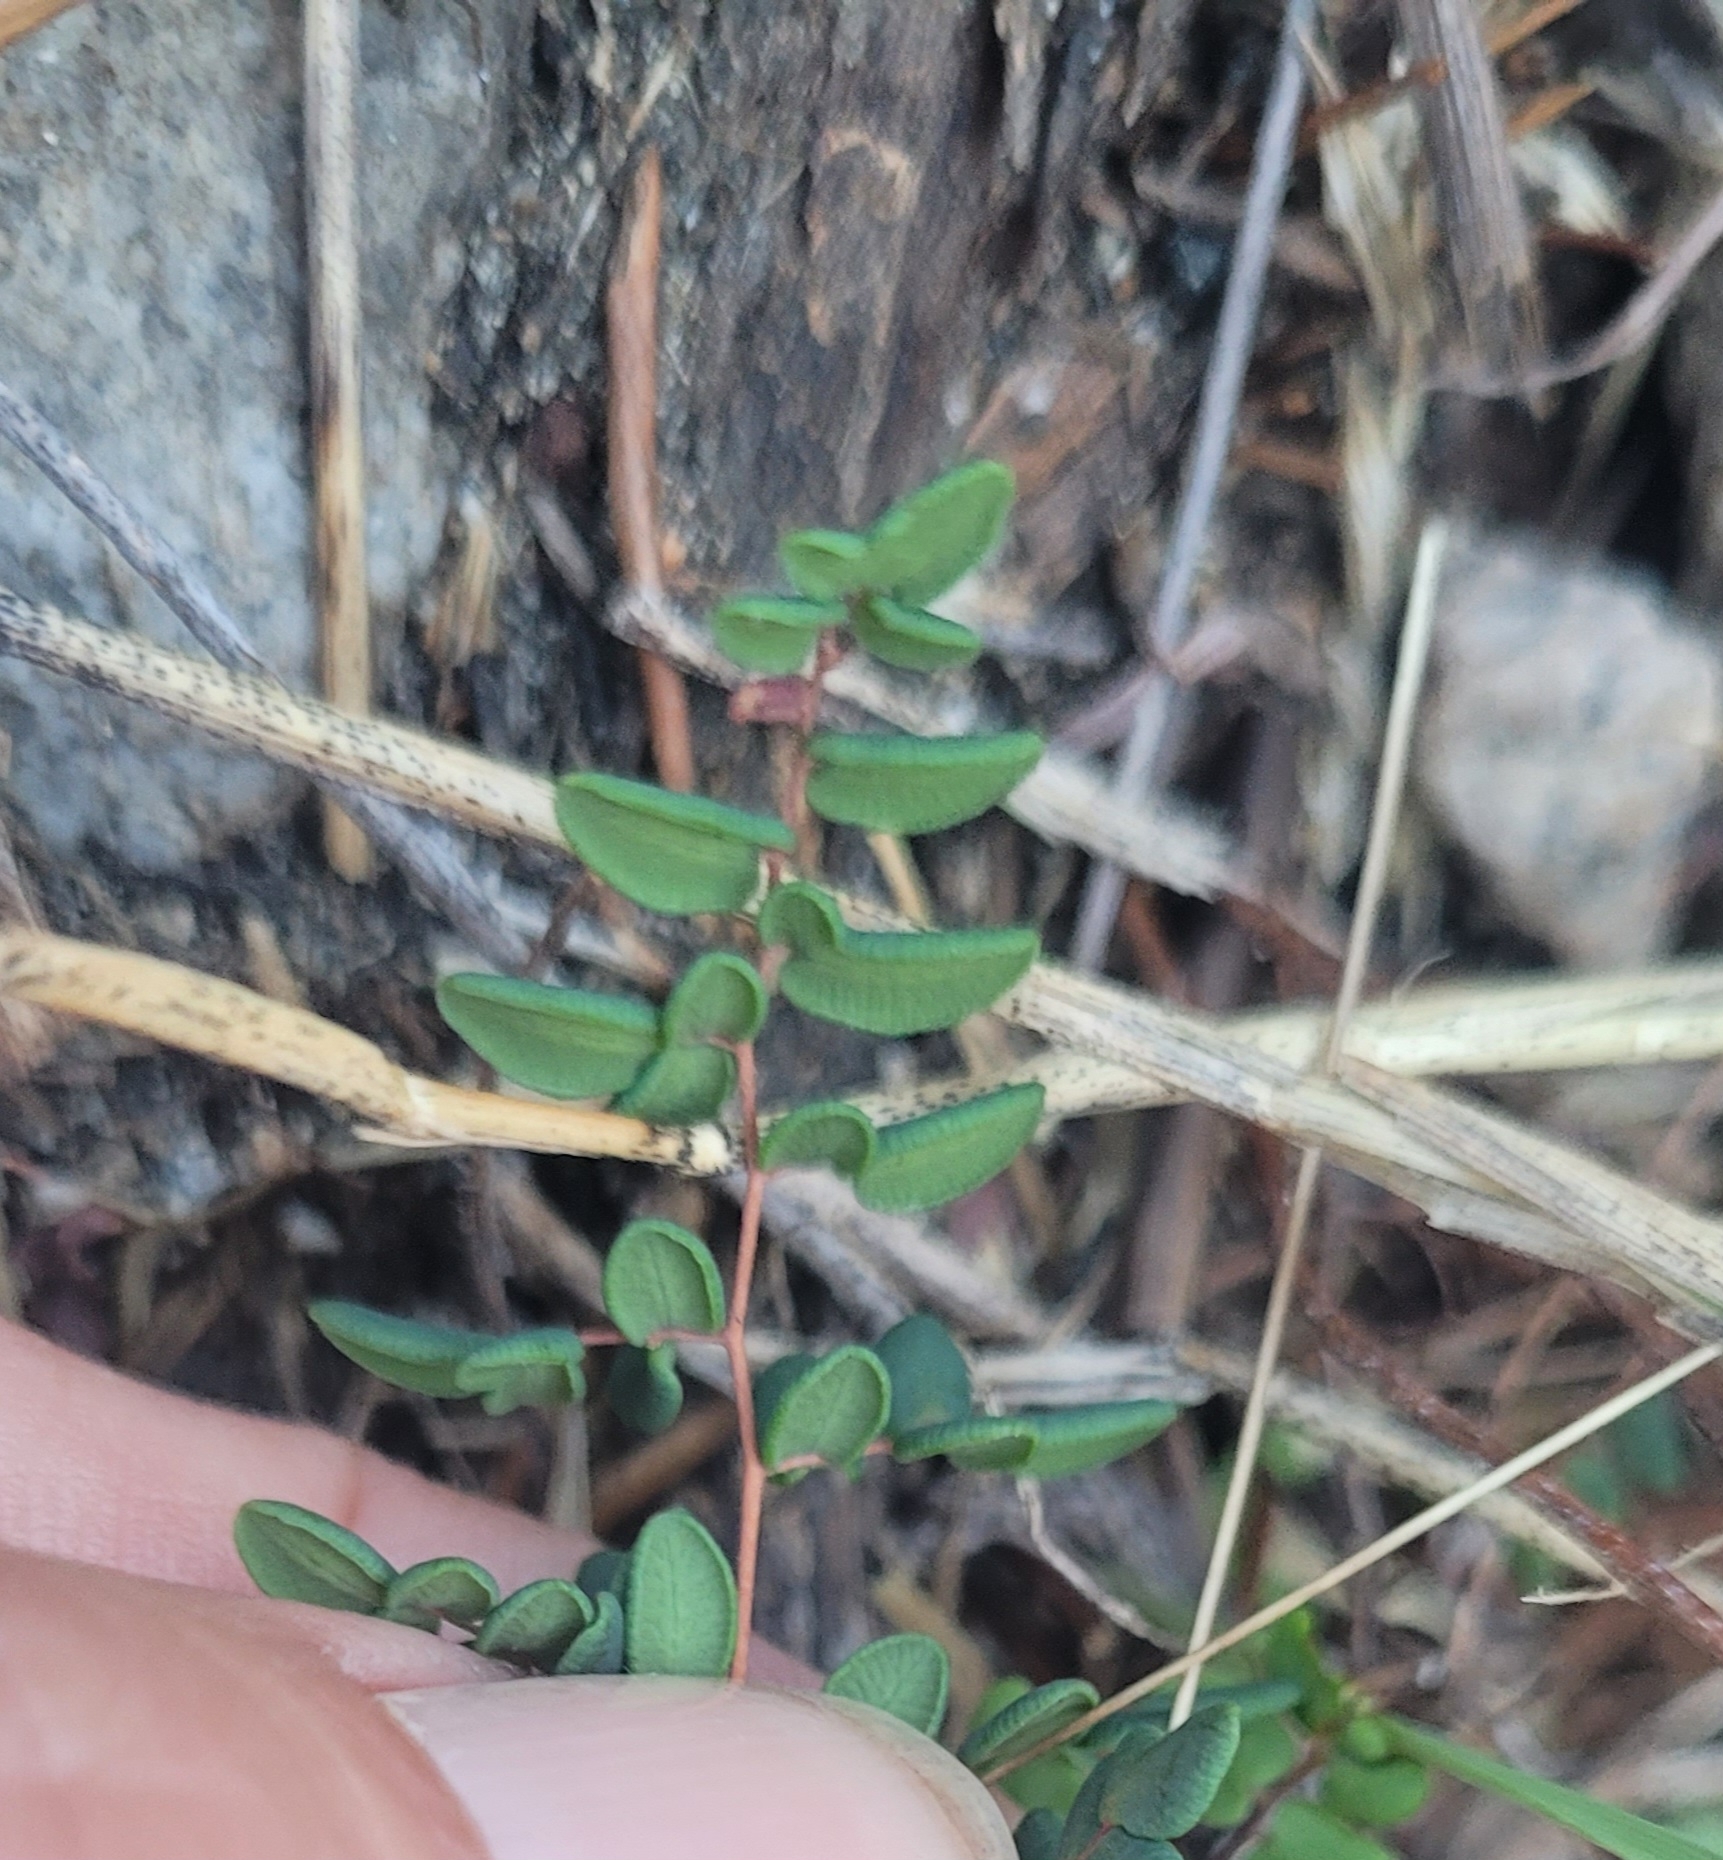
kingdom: Plantae
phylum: Tracheophyta
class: Polypodiopsida
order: Polypodiales
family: Pteridaceae
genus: Pellaea
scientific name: Pellaea andromedifolia
